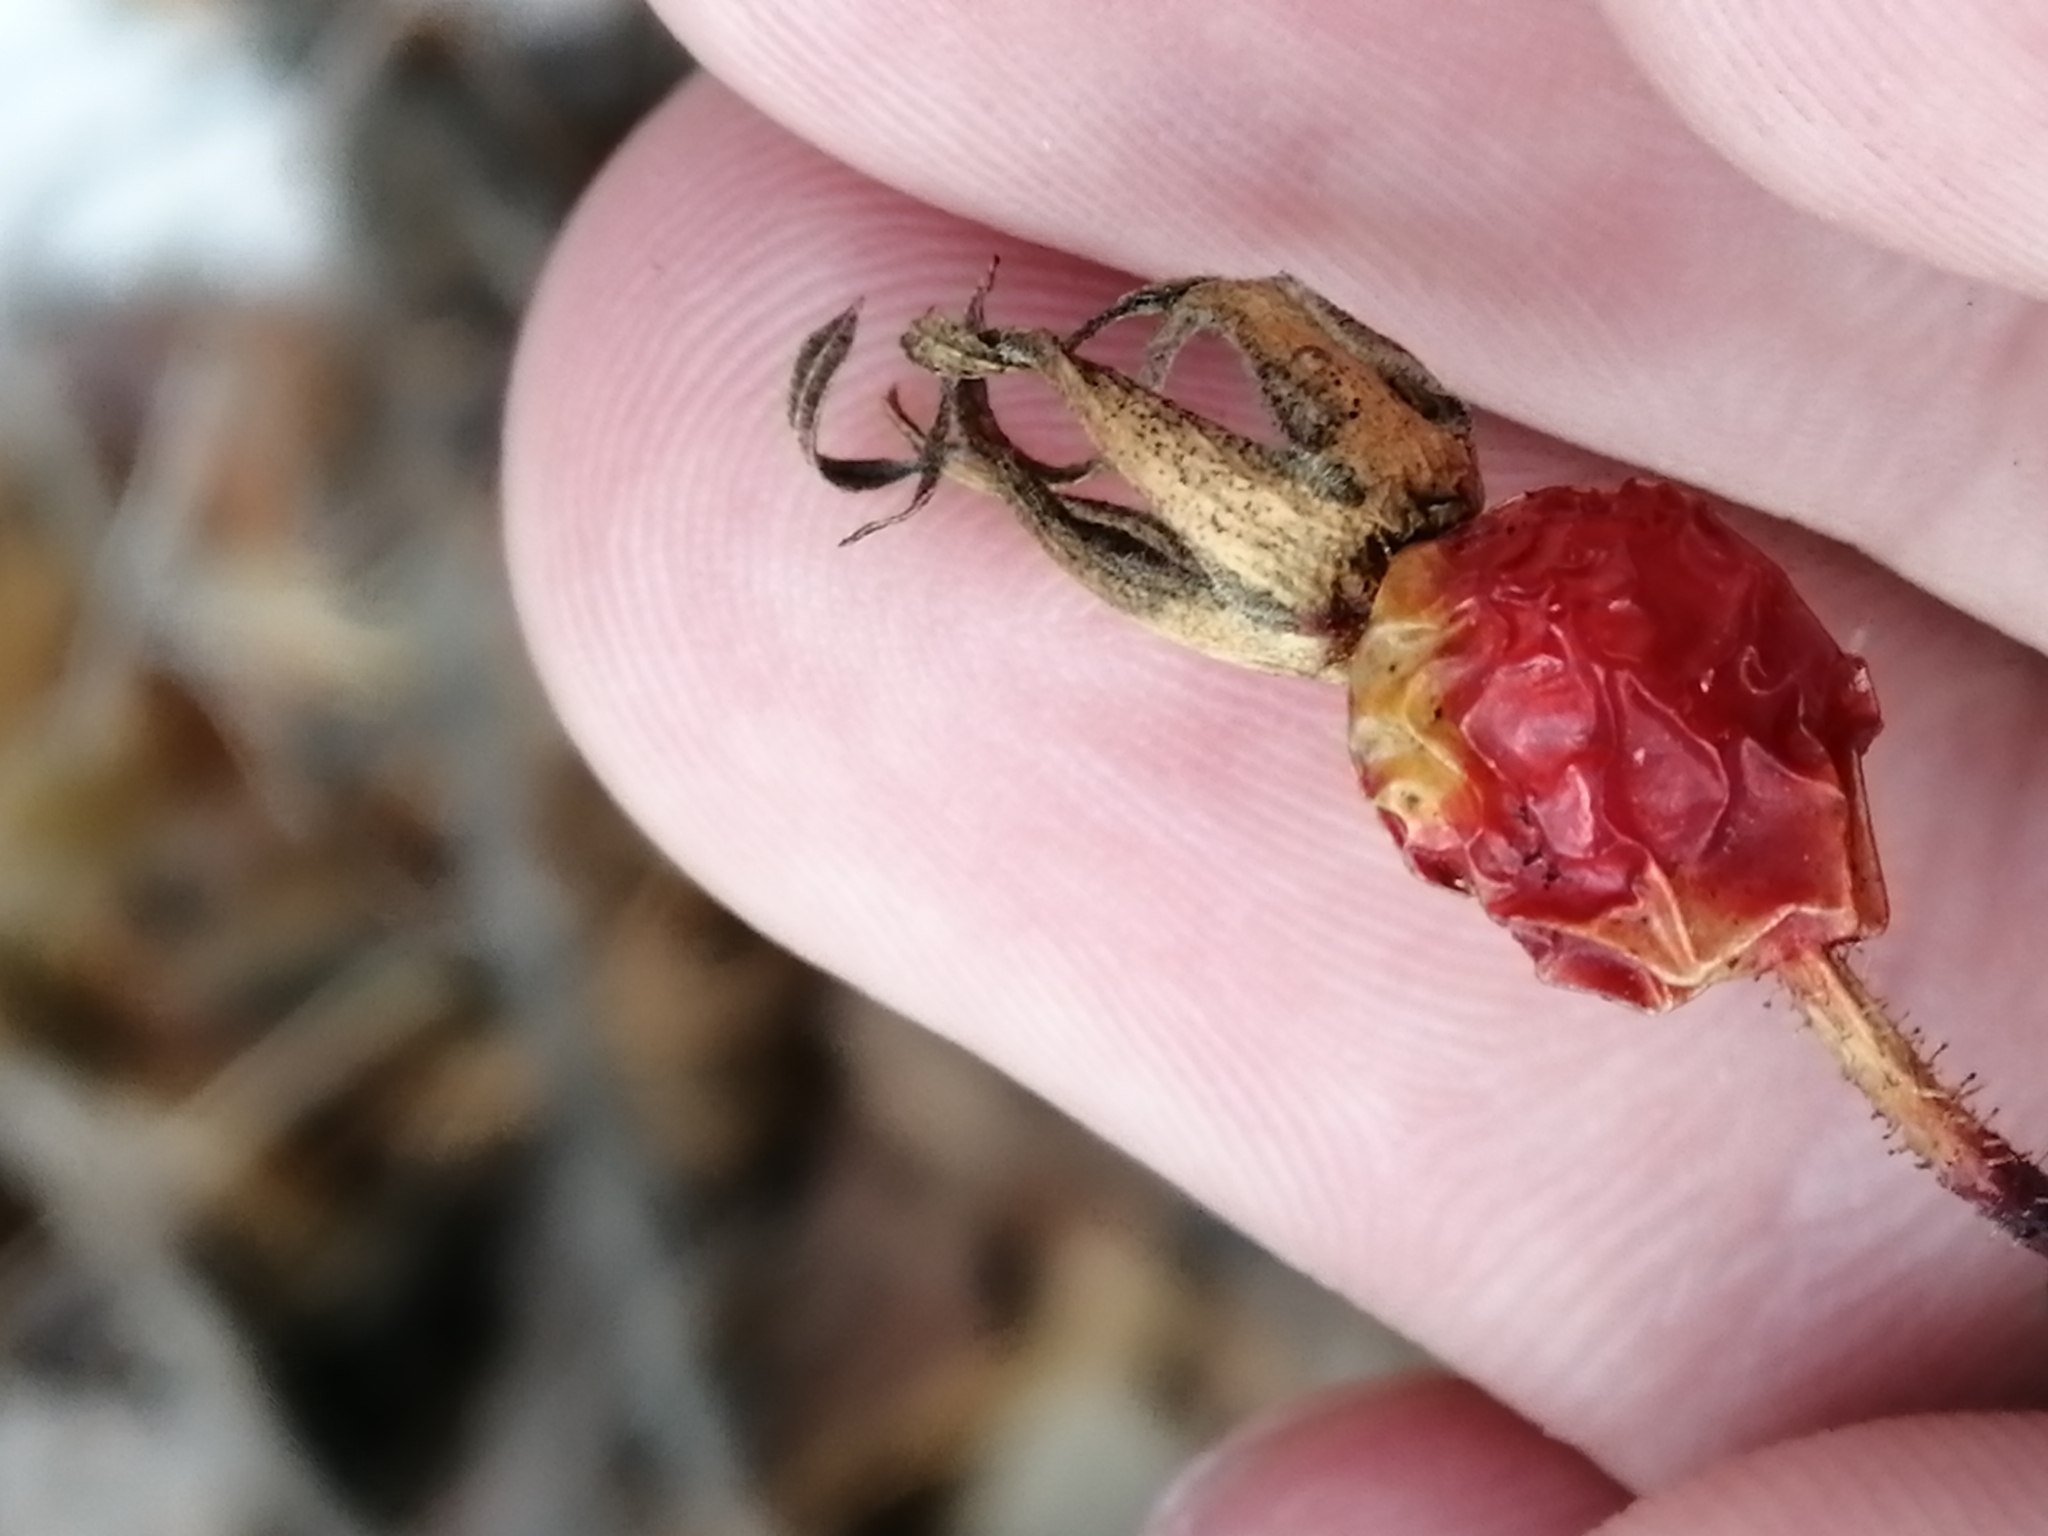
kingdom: Plantae
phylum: Tracheophyta
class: Magnoliopsida
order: Rosales
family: Rosaceae
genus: Rosa
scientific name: Rosa acicularis
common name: Prickly rose
